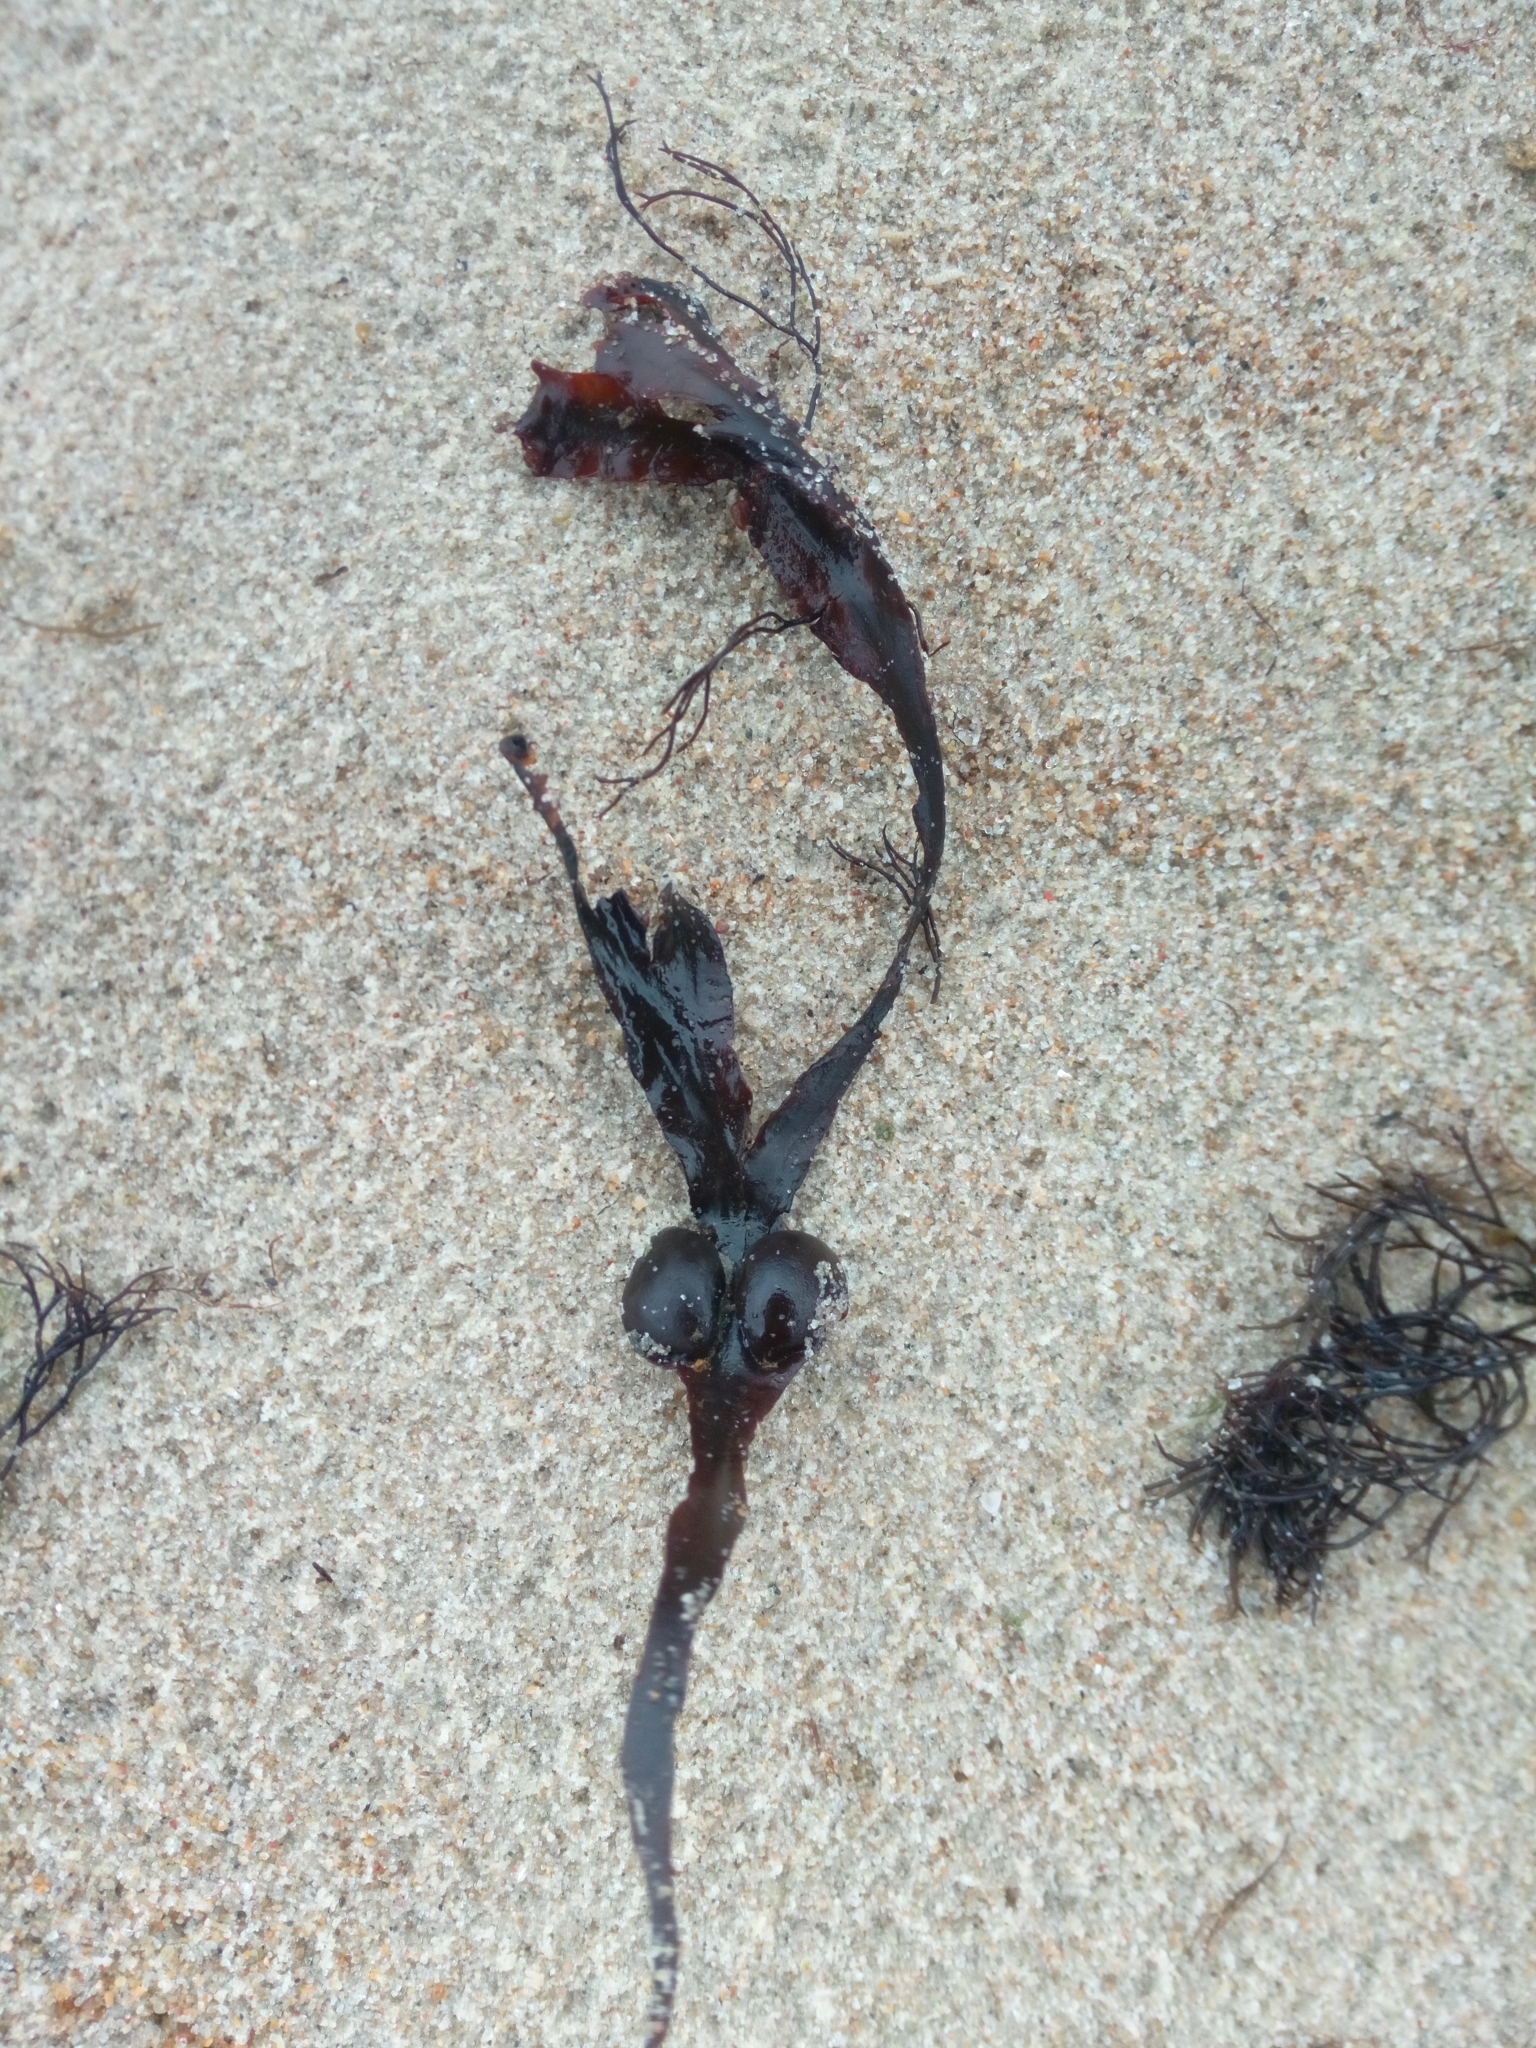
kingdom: Chromista
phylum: Ochrophyta
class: Phaeophyceae
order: Fucales
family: Fucaceae
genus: Fucus
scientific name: Fucus vesiculosus
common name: Bladder wrack
